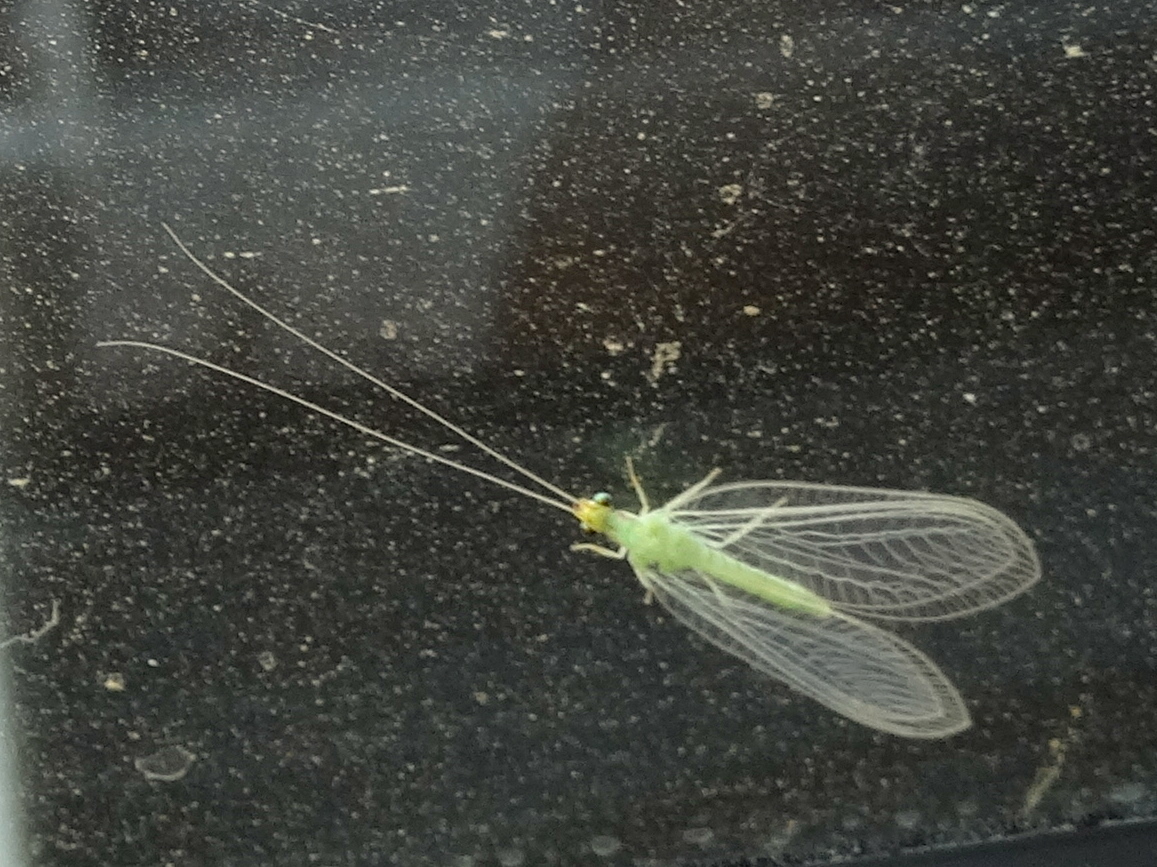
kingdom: Animalia
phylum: Arthropoda
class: Insecta
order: Neuroptera
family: Chrysopidae
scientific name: Chrysopidae
